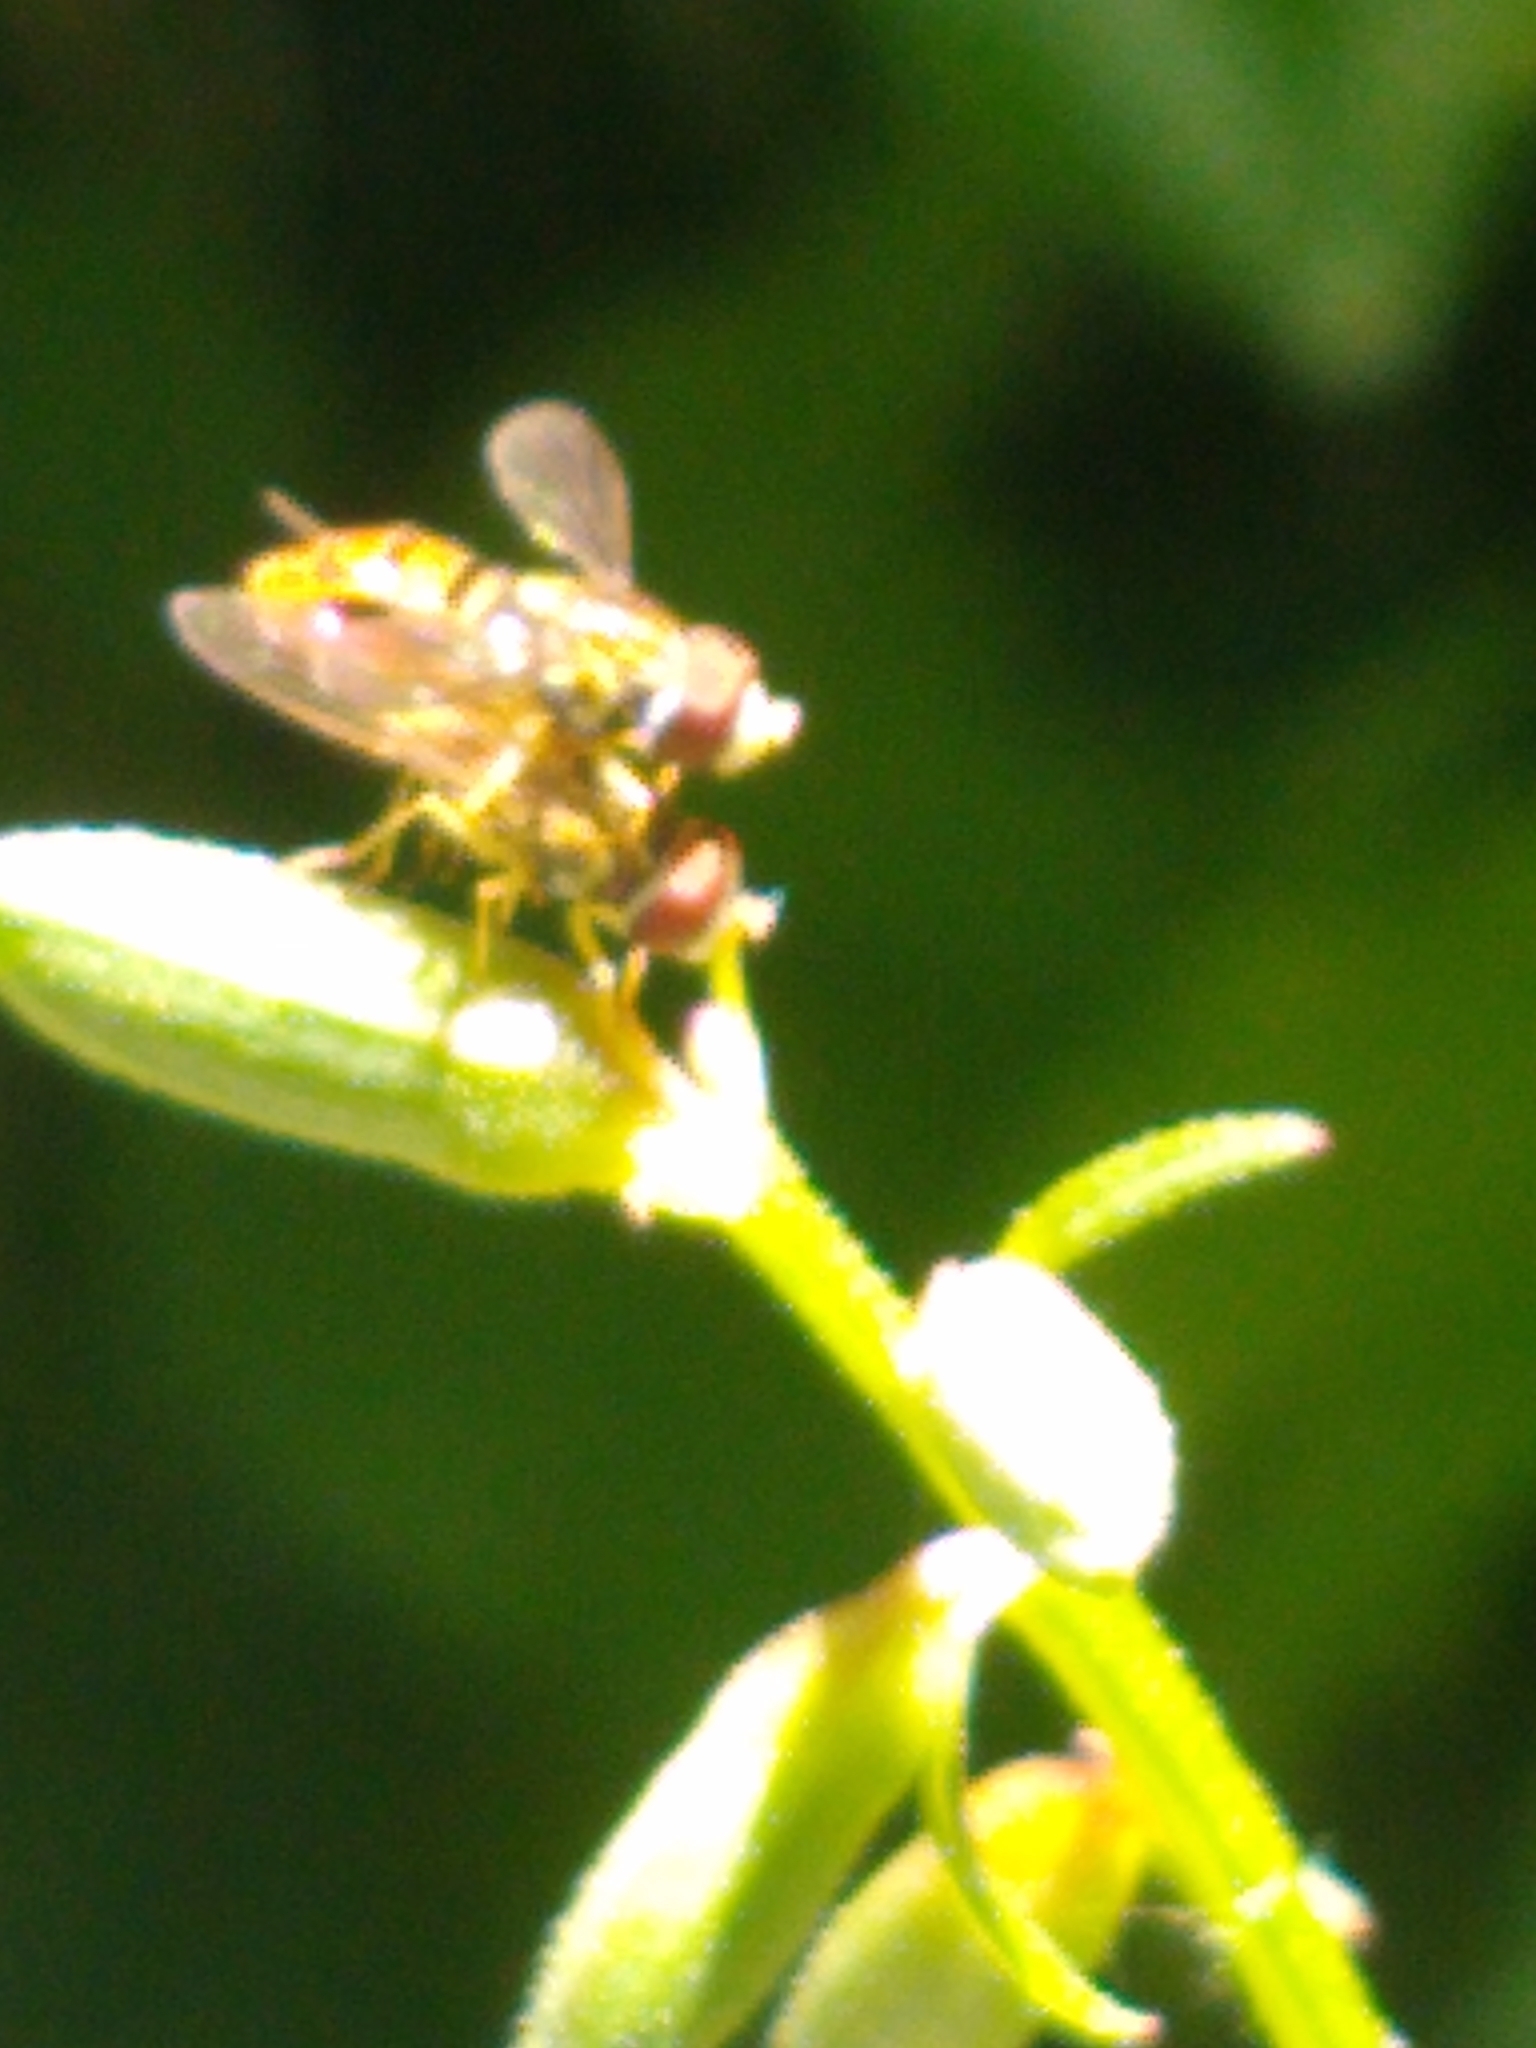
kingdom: Animalia
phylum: Arthropoda
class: Insecta
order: Diptera
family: Syrphidae
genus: Toxomerus
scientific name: Toxomerus marginatus
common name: Syrphid fly
